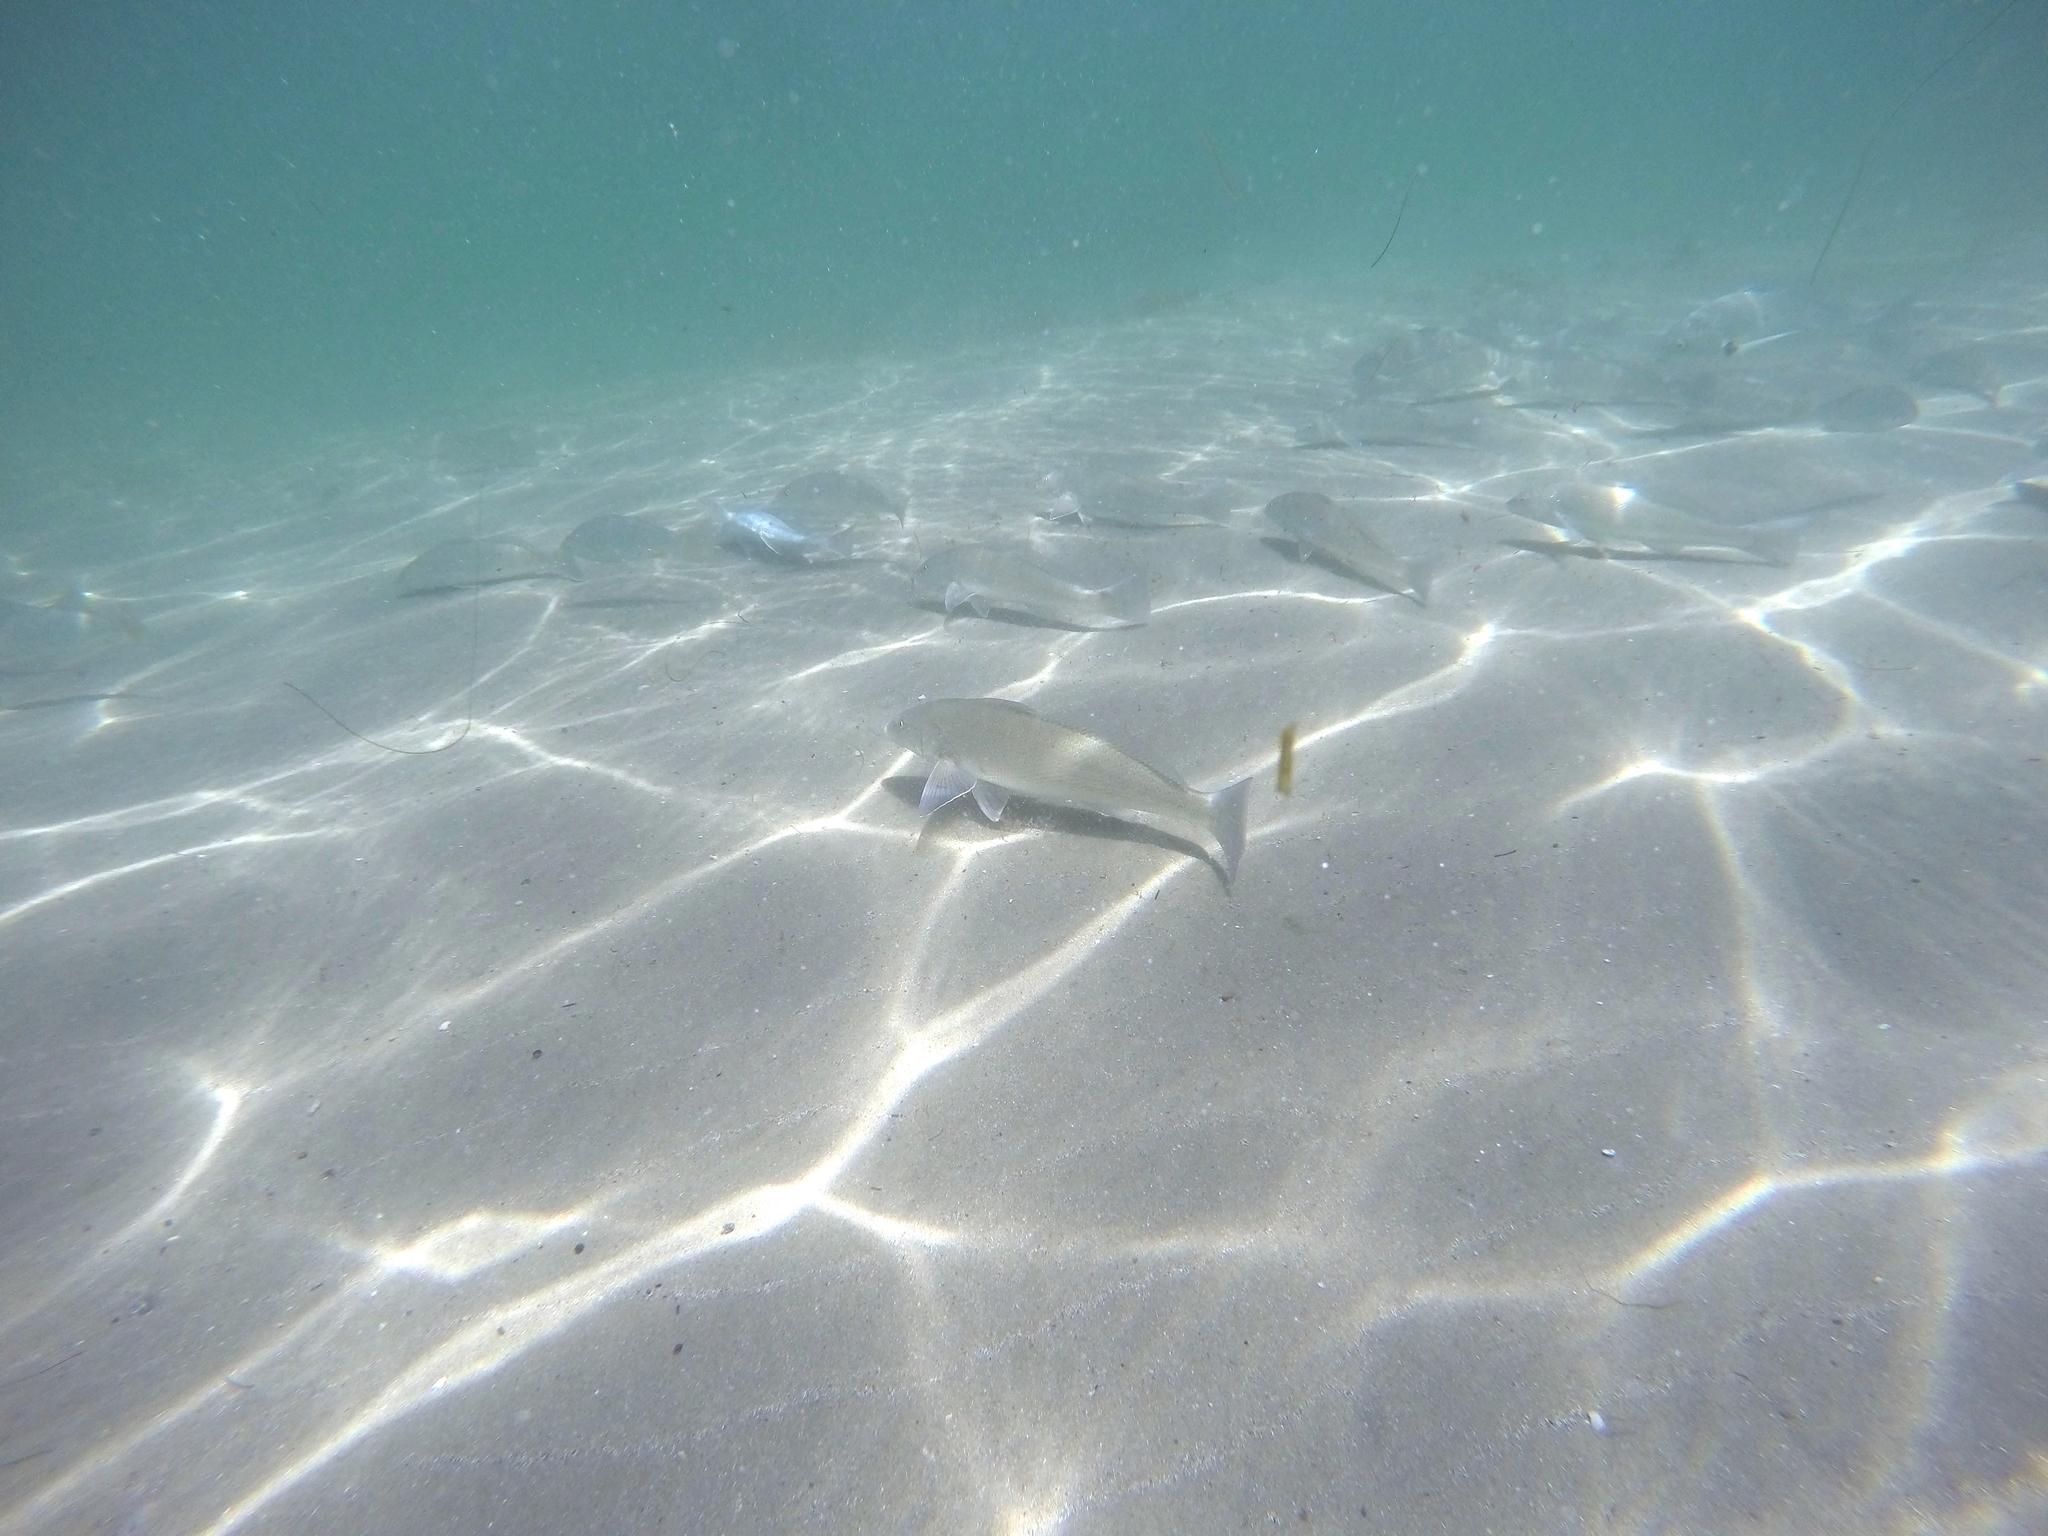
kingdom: Animalia
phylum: Chordata
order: Perciformes
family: Sciaenidae
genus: Menticirrhus
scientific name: Menticirrhus undulatus
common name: California corbina
